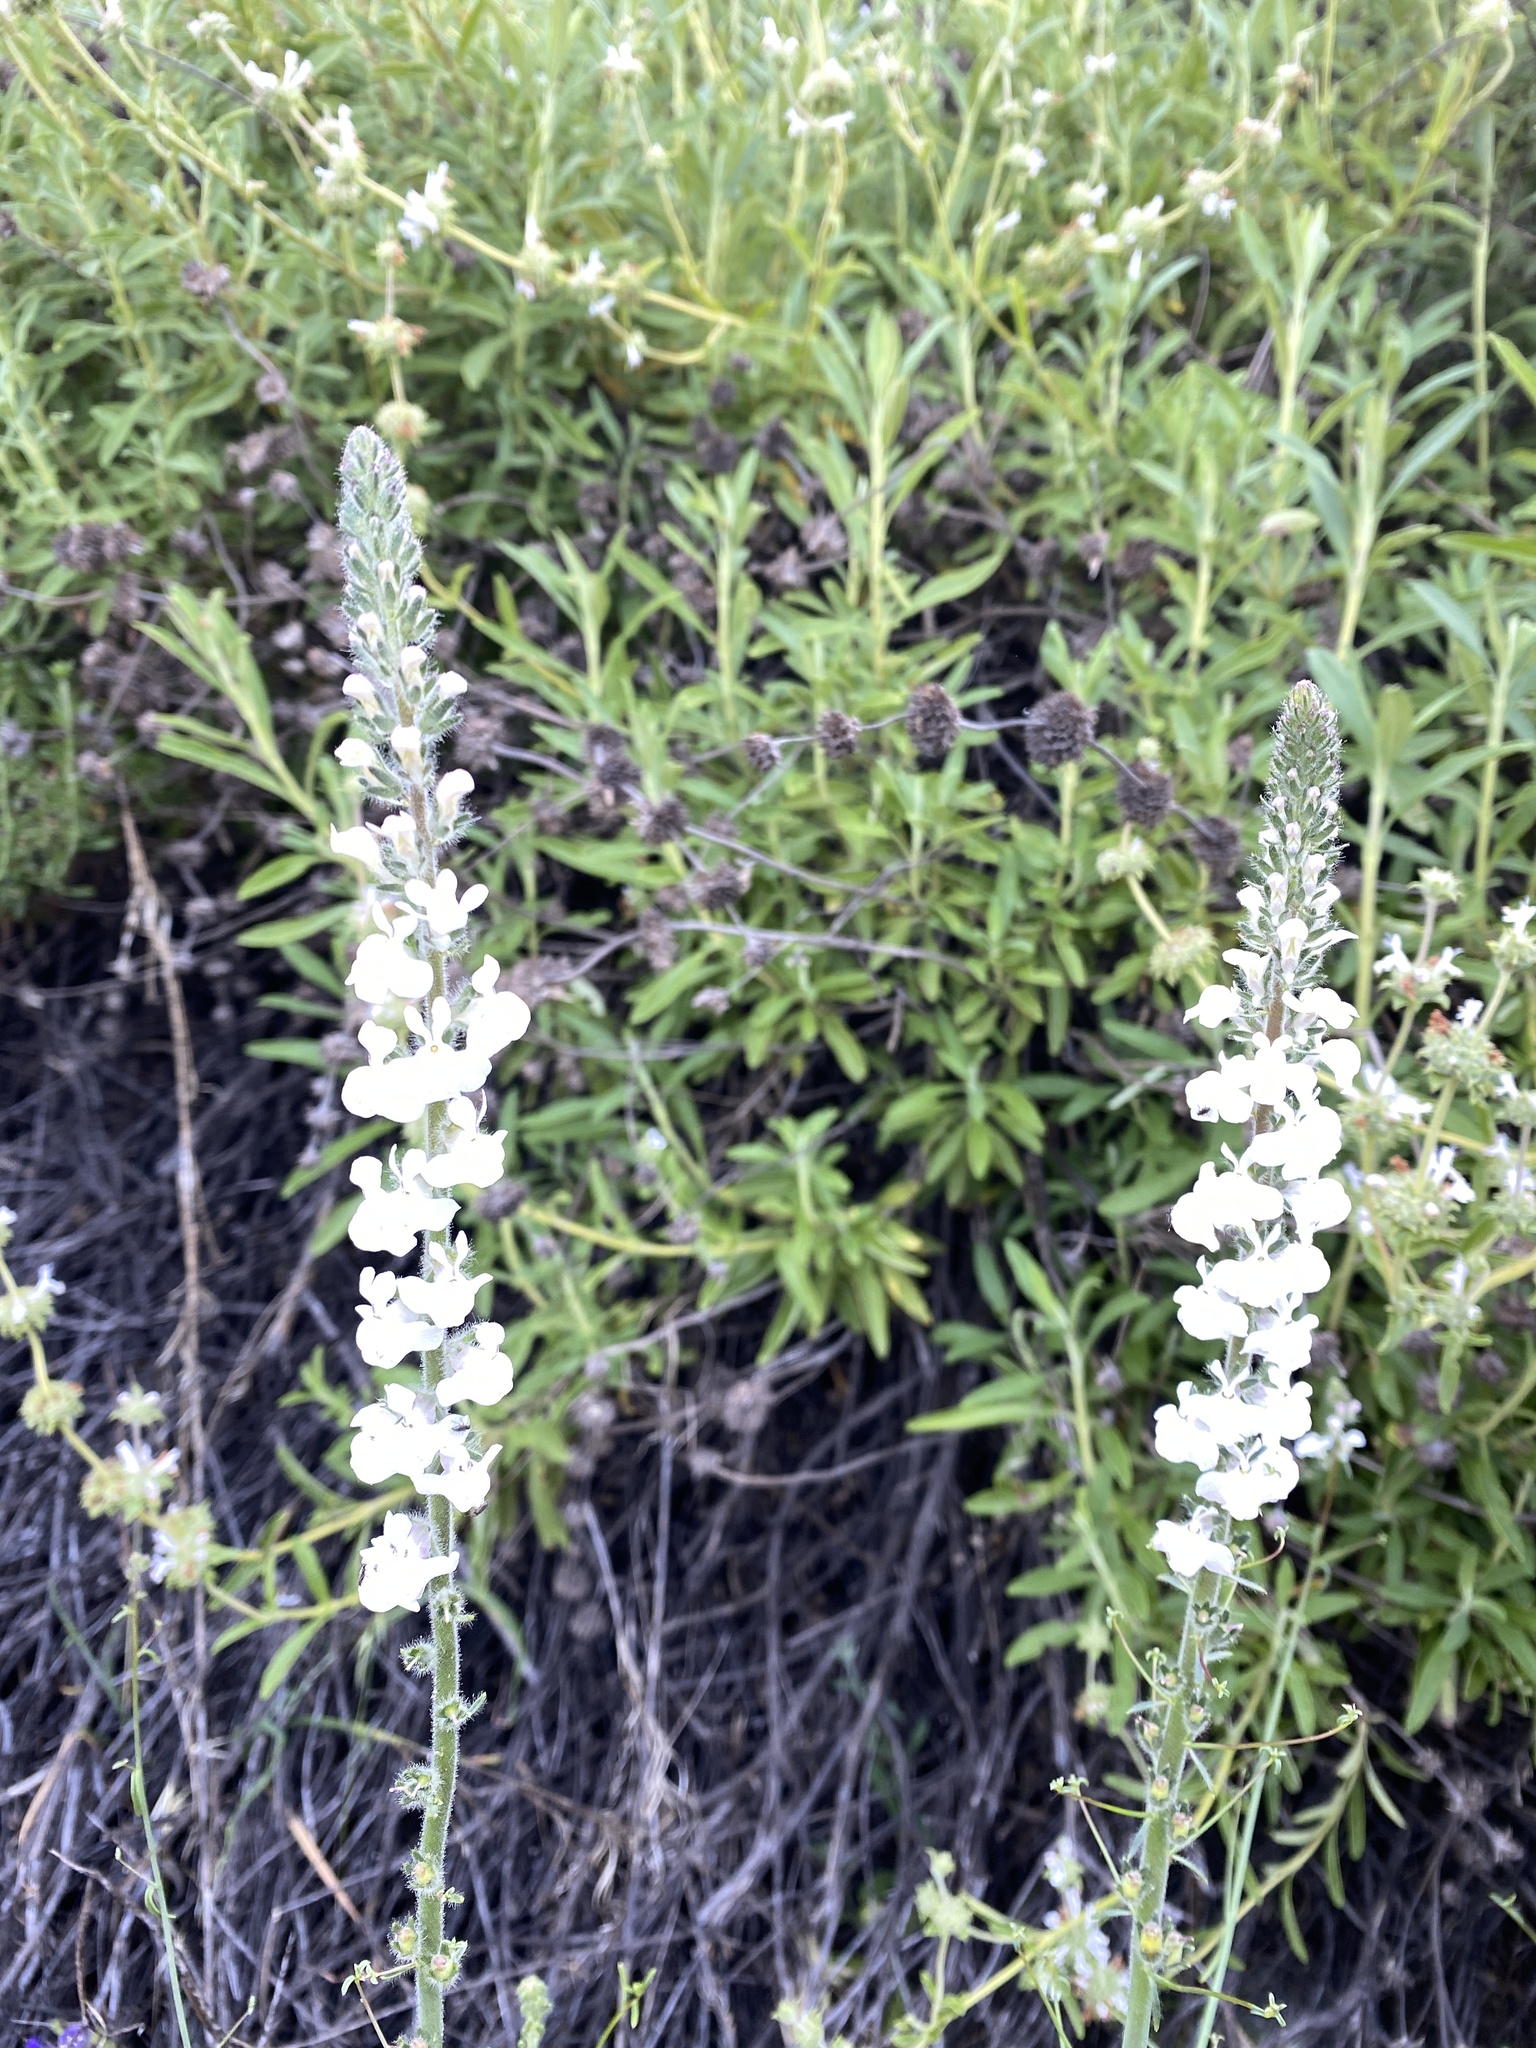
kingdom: Plantae
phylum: Tracheophyta
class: Magnoliopsida
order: Lamiales
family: Plantaginaceae
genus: Sairocarpus
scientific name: Sairocarpus coulterianus
